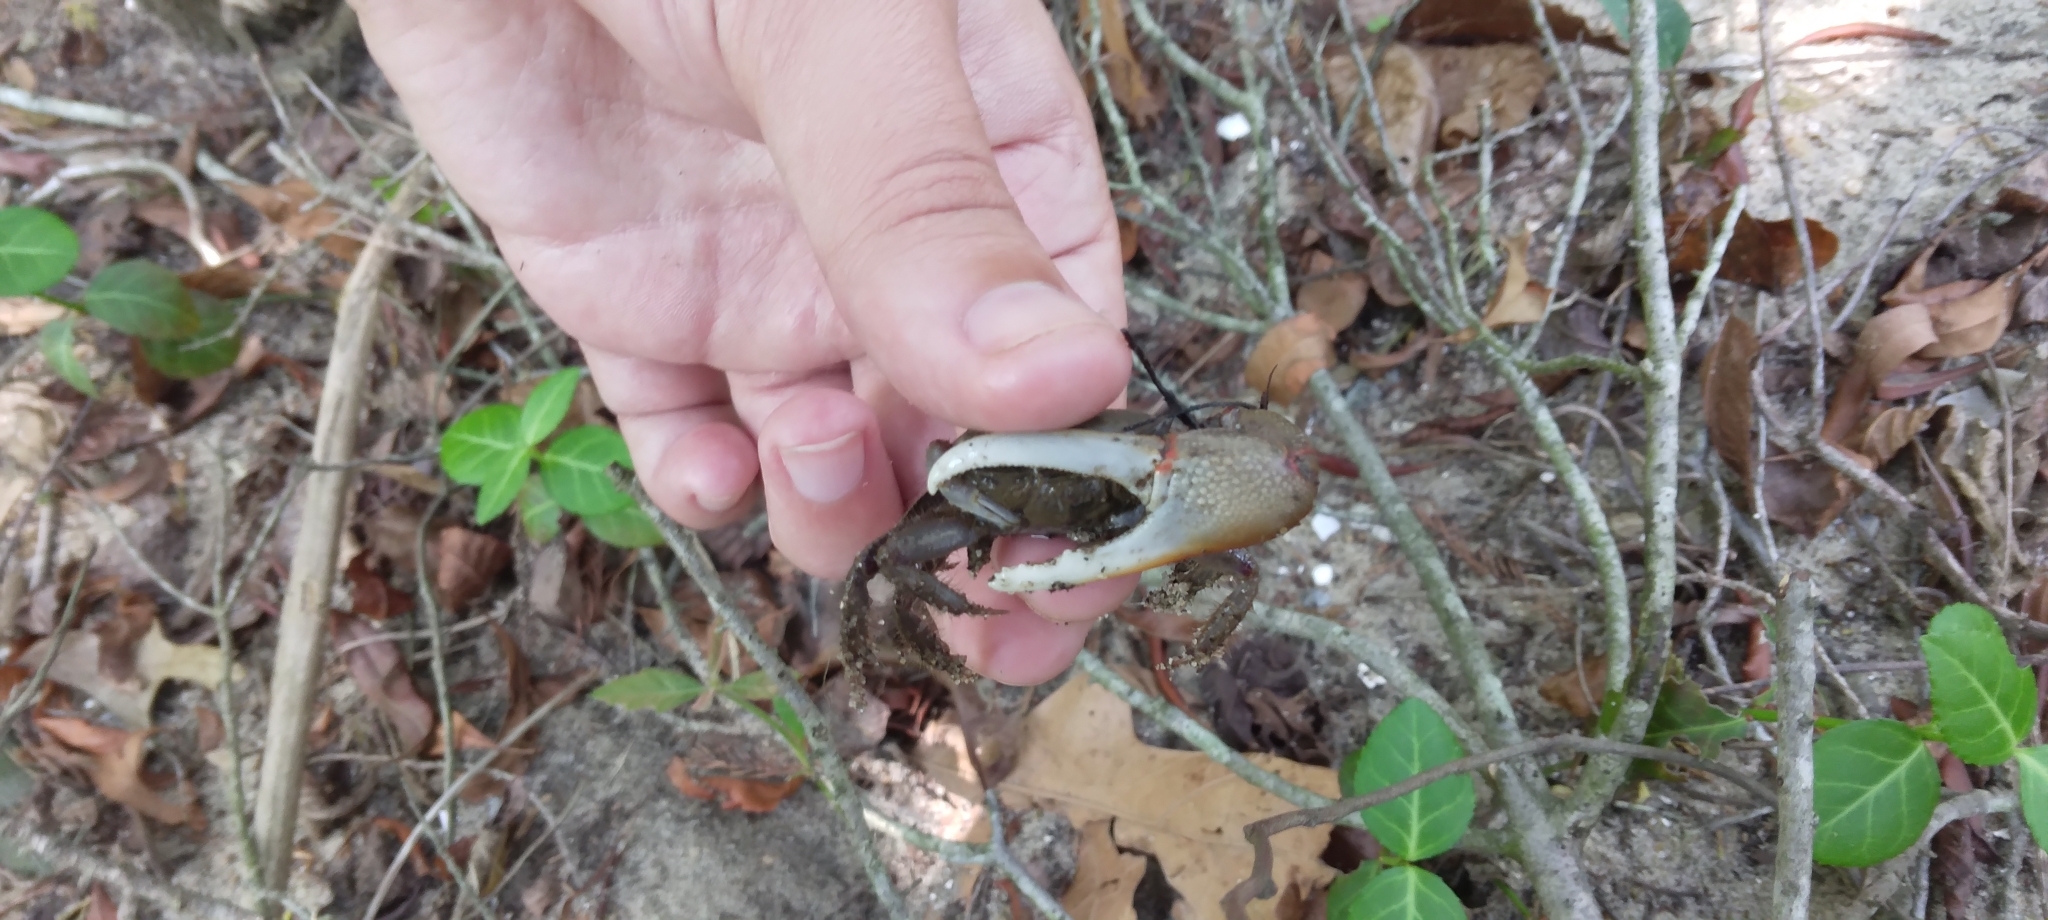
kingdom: Animalia
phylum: Arthropoda
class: Malacostraca
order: Decapoda
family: Ocypodidae
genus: Minuca
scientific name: Minuca minax
